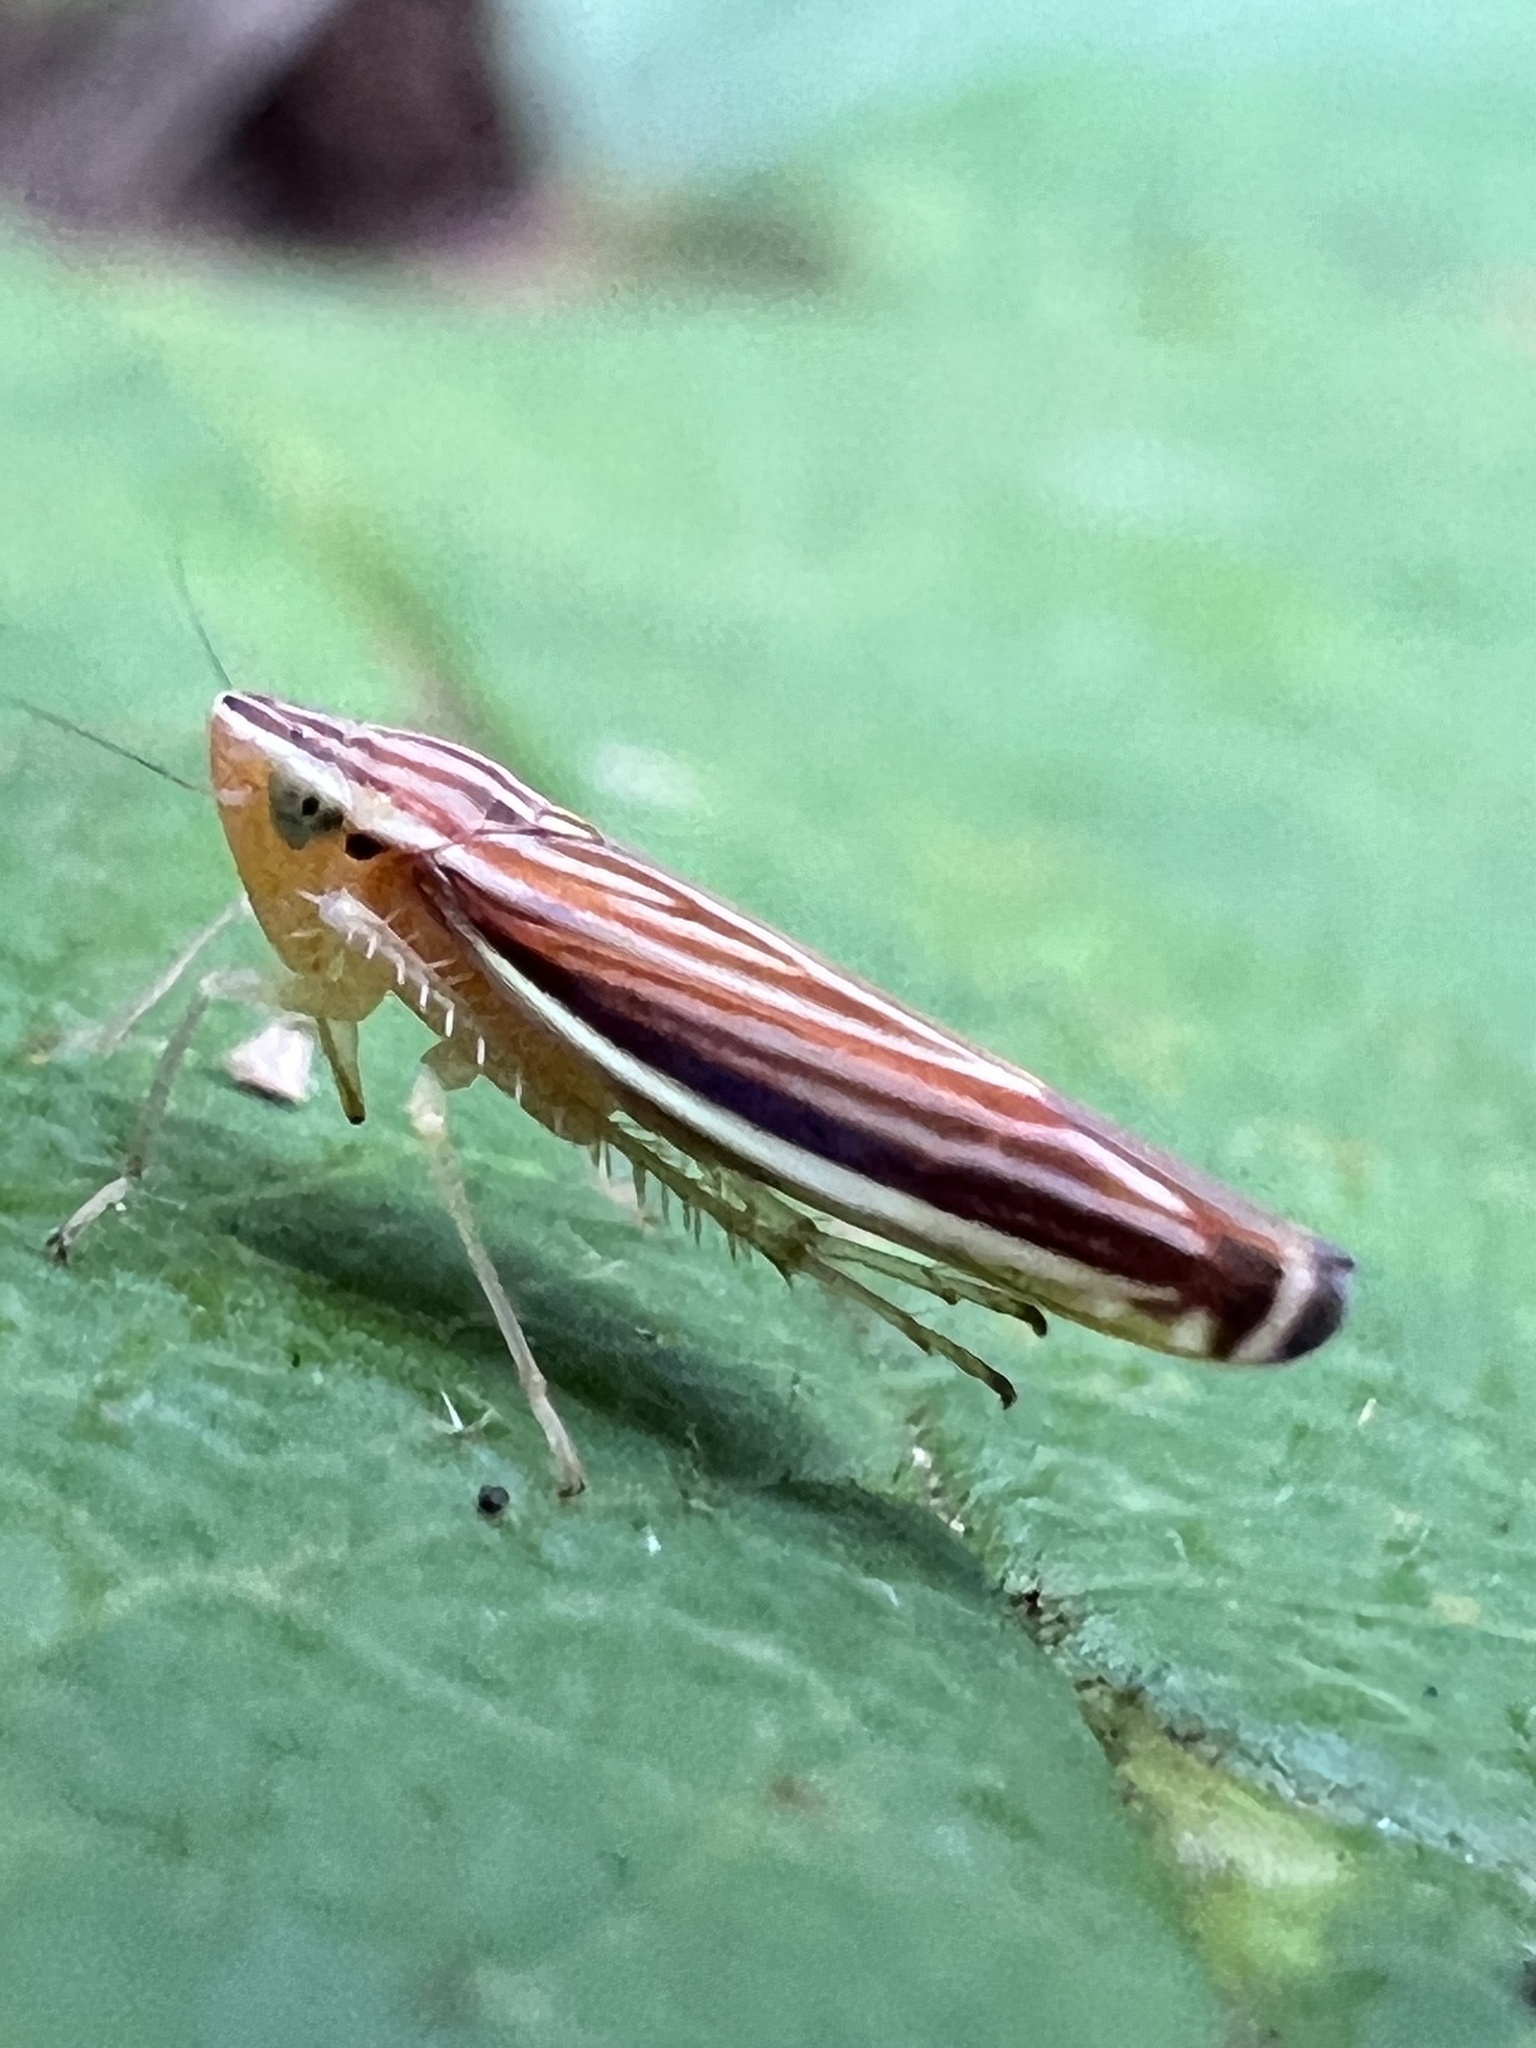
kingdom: Animalia
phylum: Arthropoda
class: Insecta
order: Hemiptera
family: Cicadellidae
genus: Sibovia
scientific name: Sibovia occatoria
